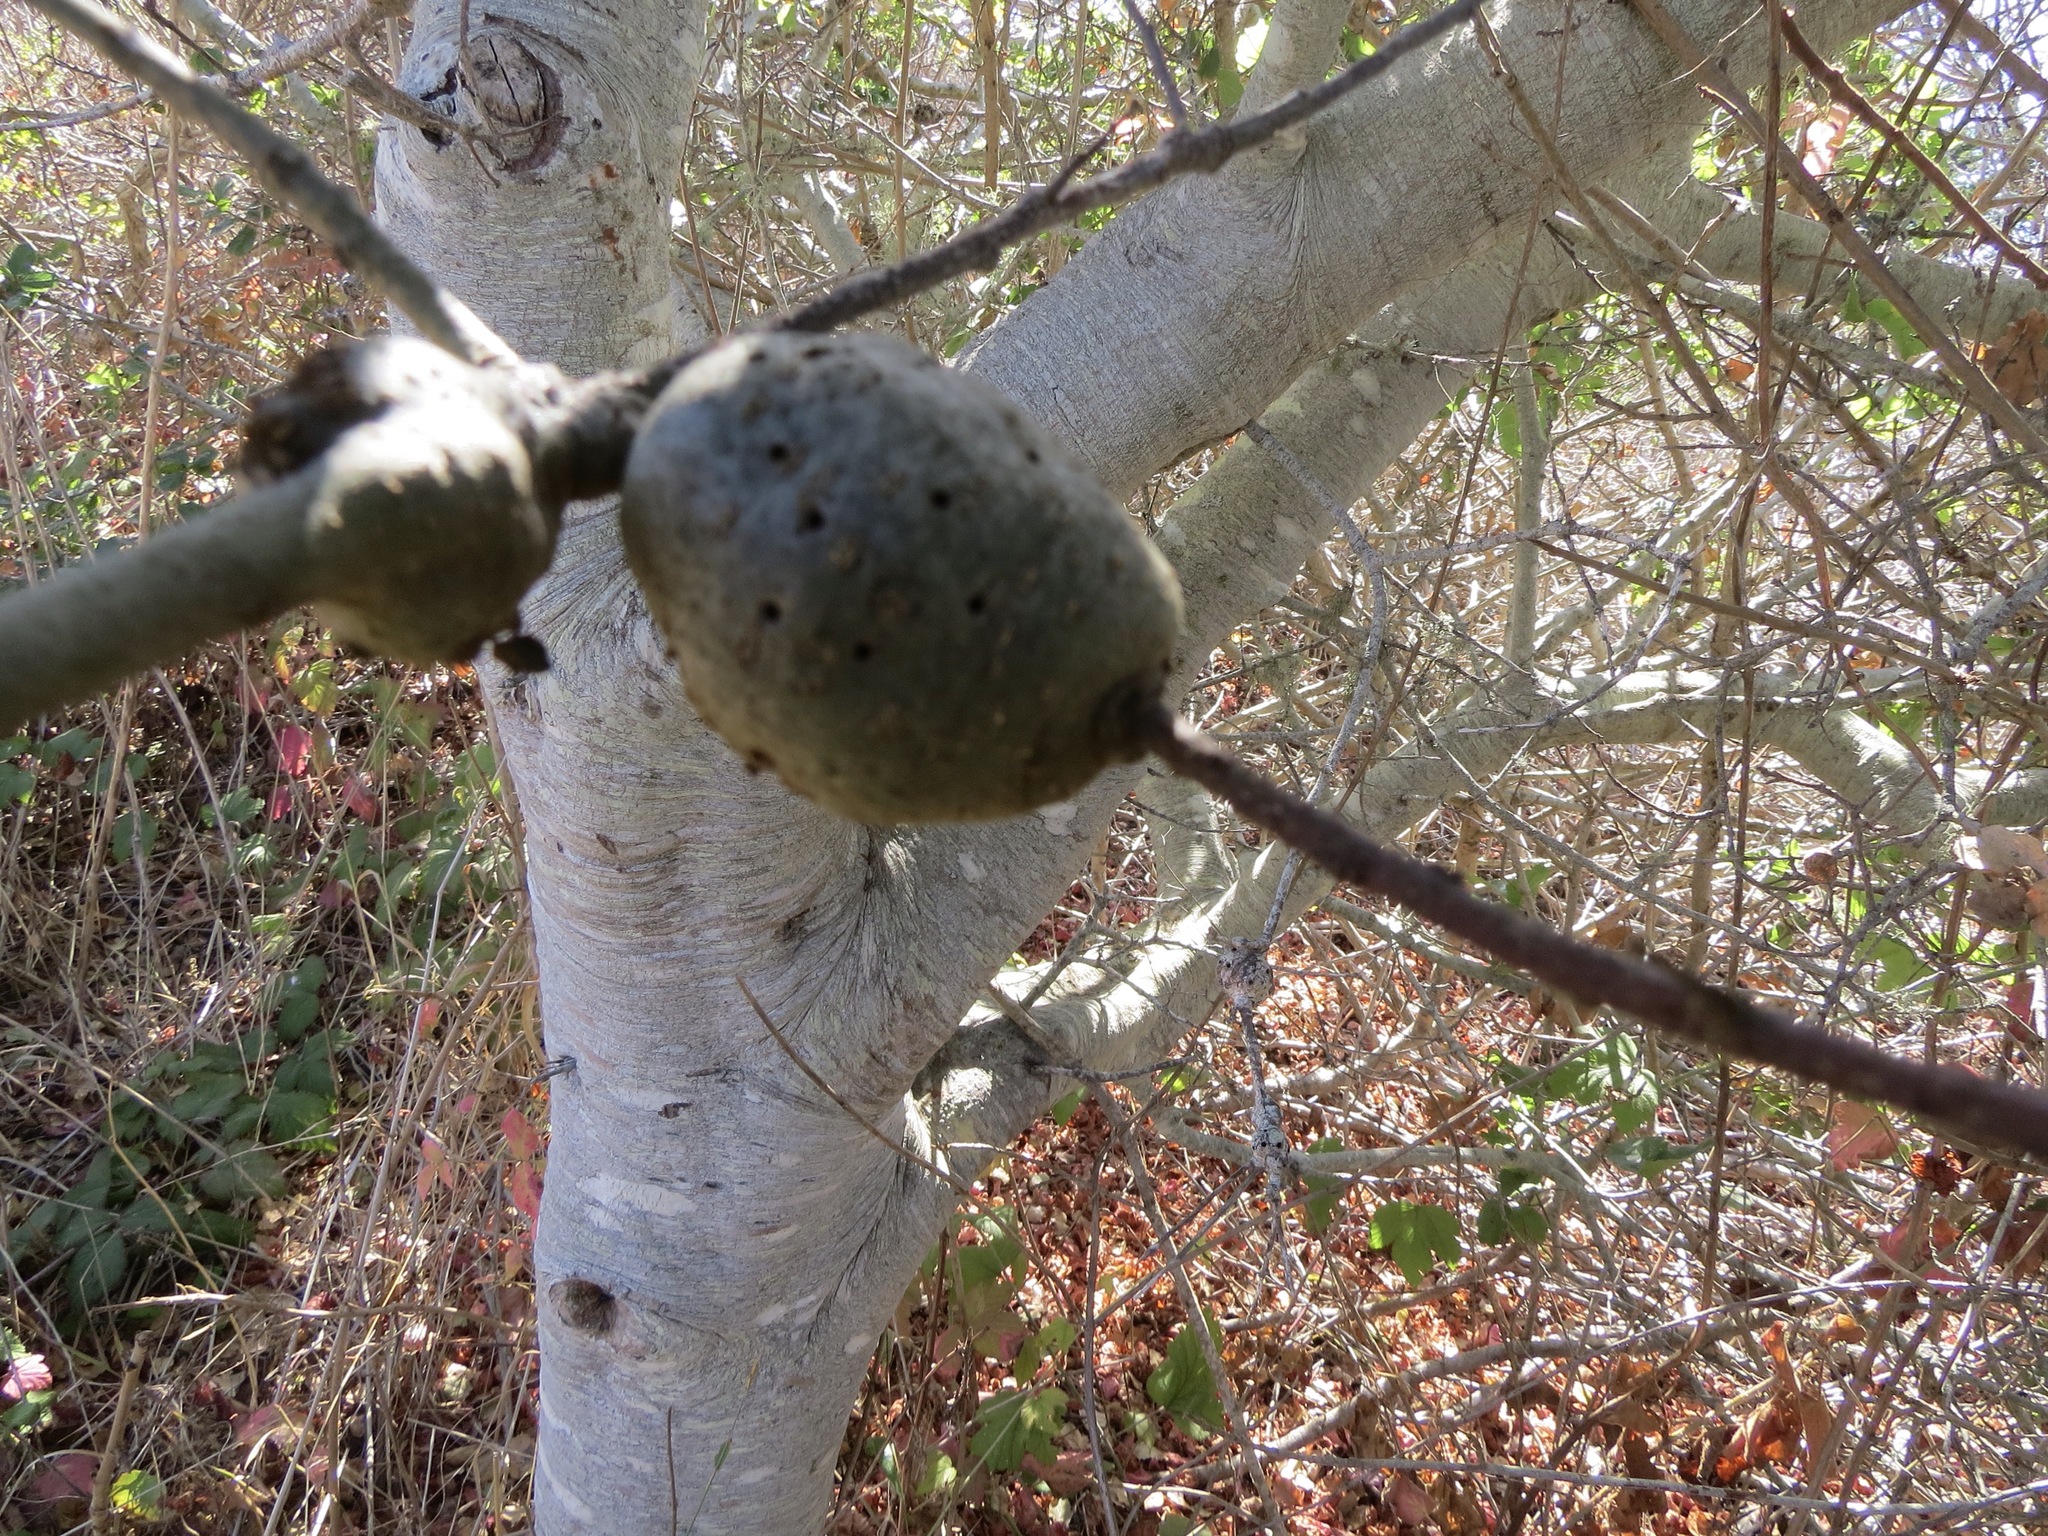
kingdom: Animalia
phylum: Arthropoda
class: Insecta
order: Hymenoptera
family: Cynipidae
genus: Callirhytis
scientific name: Callirhytis
